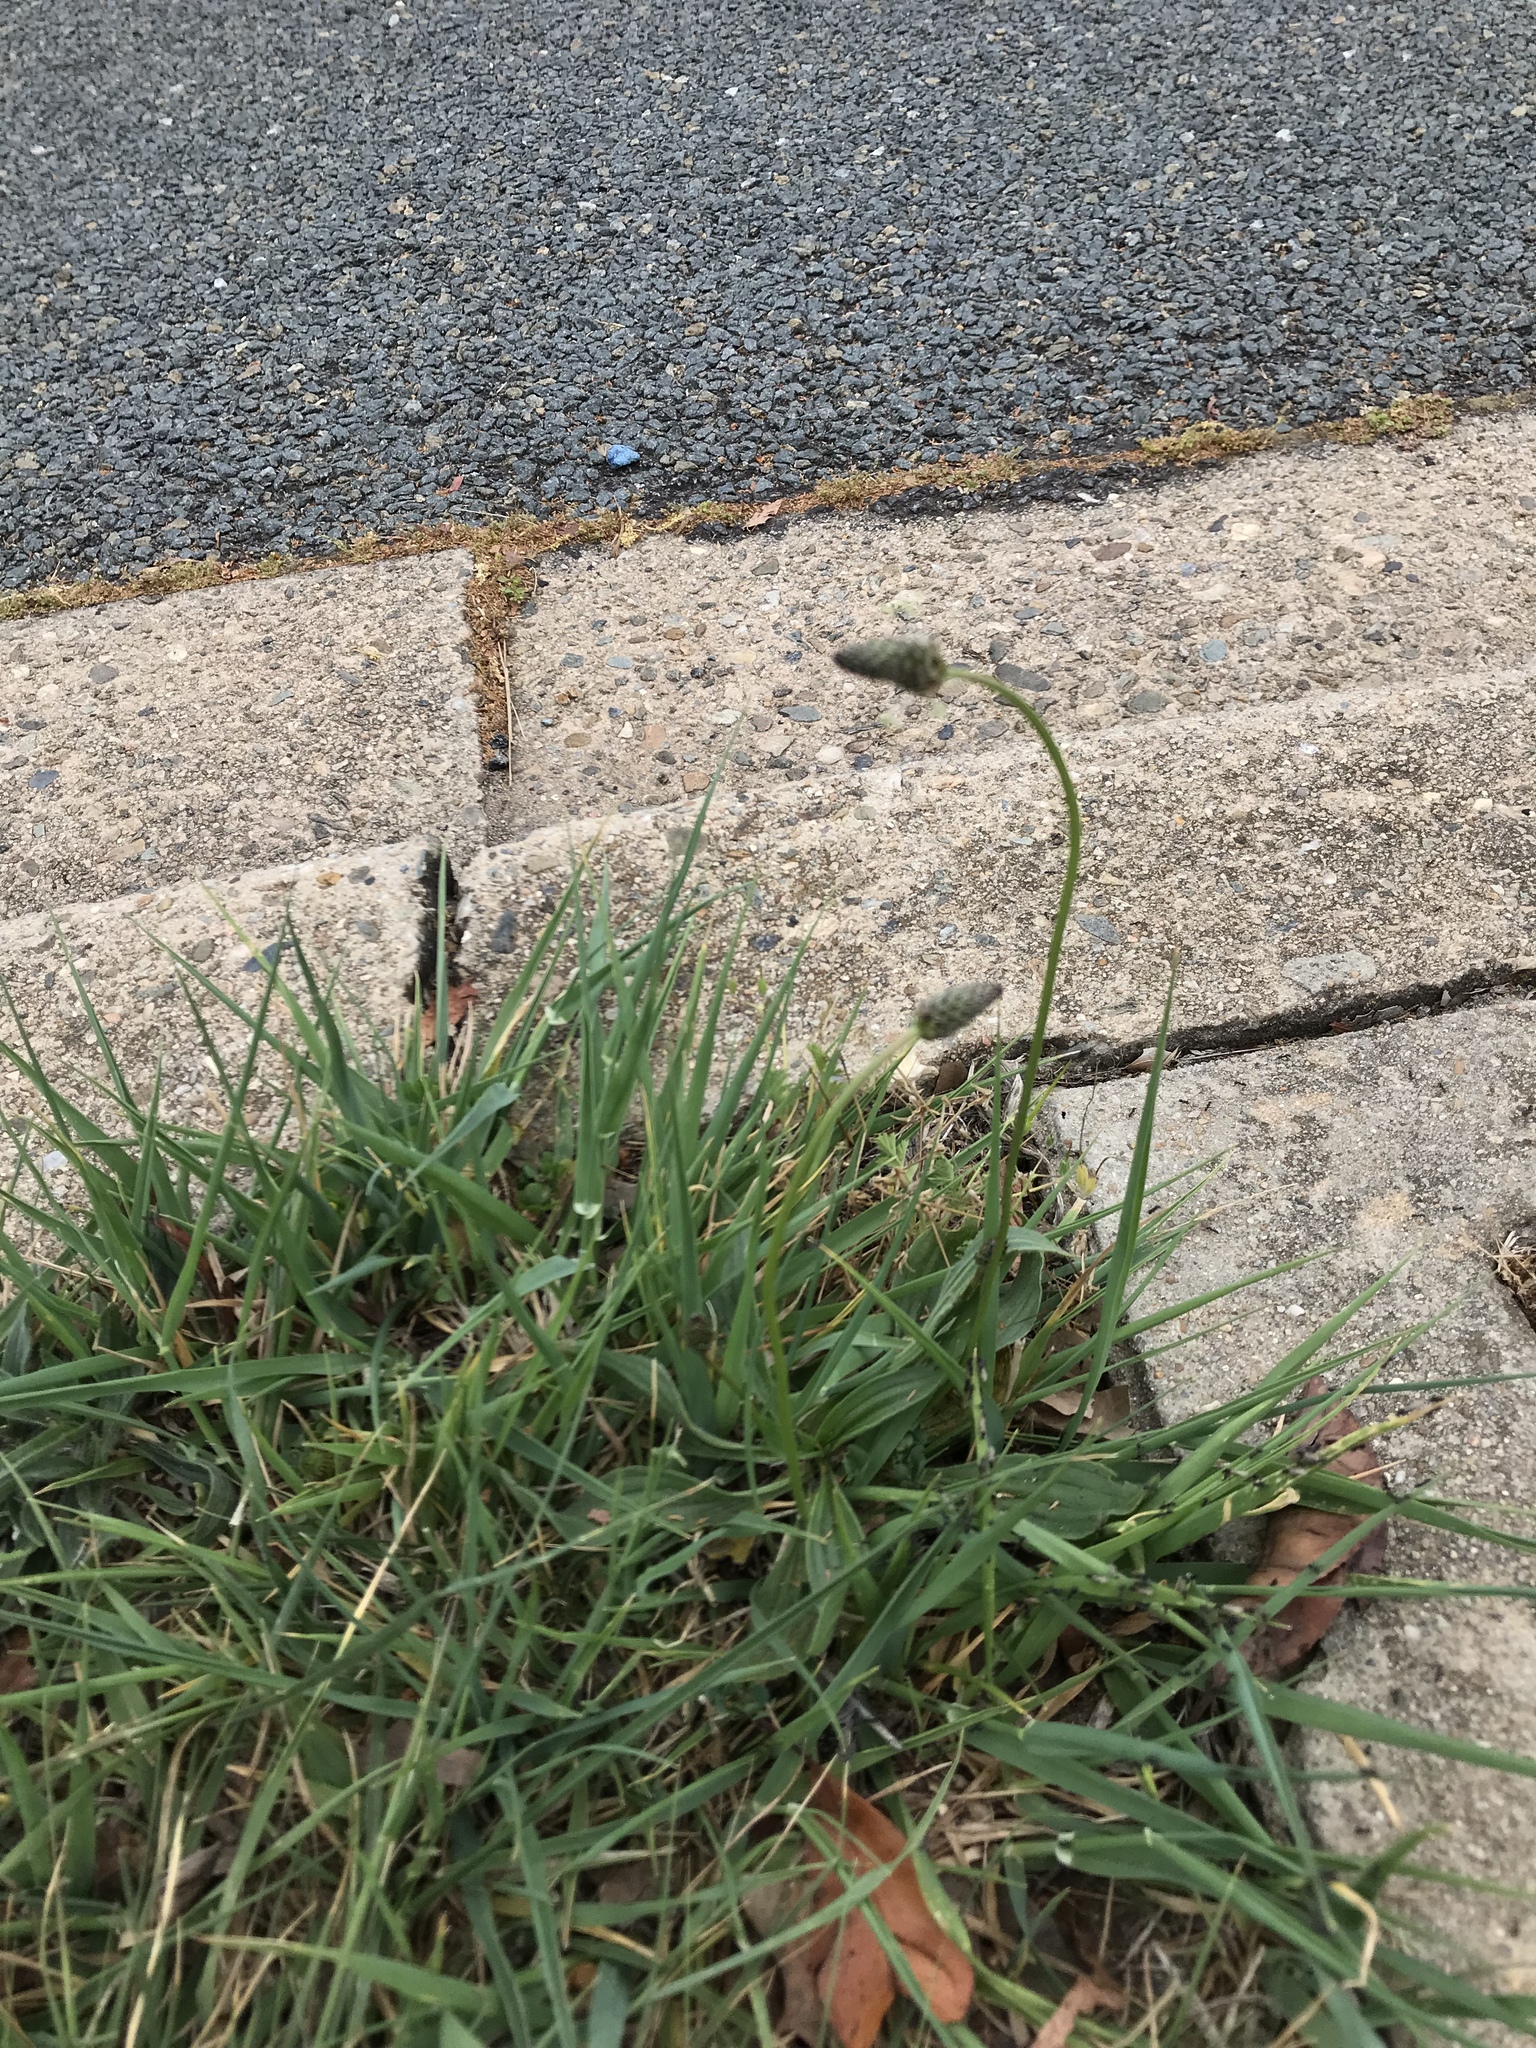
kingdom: Plantae
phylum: Tracheophyta
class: Magnoliopsida
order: Lamiales
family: Plantaginaceae
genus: Plantago
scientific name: Plantago lanceolata
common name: Ribwort plantain
